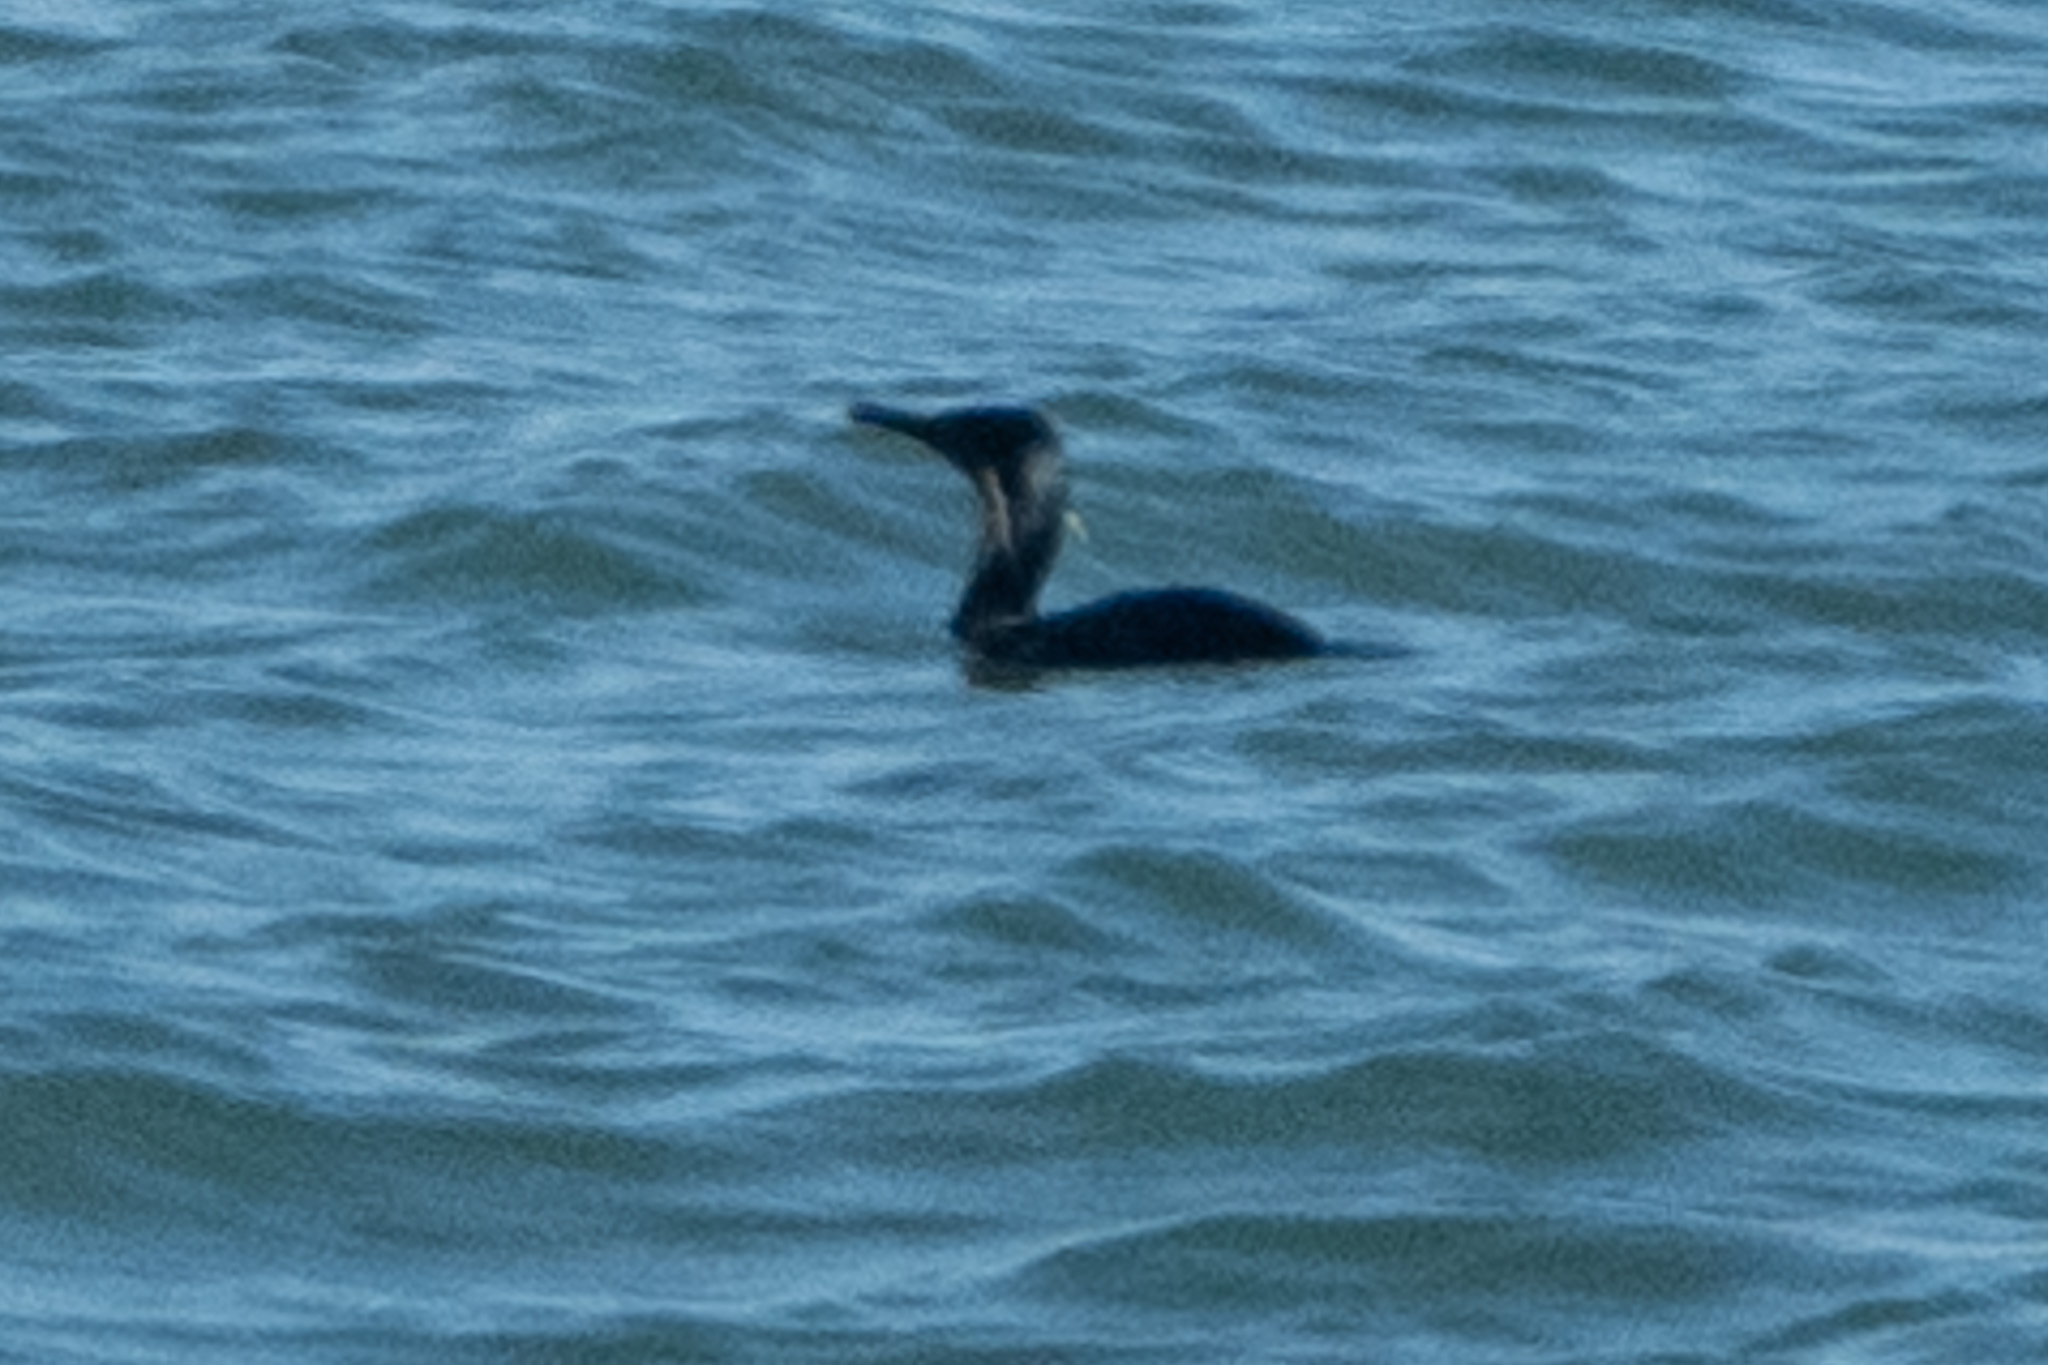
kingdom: Animalia
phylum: Chordata
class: Aves
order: Suliformes
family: Phalacrocoracidae
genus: Urile
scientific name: Urile penicillatus
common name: Brandt's cormorant
